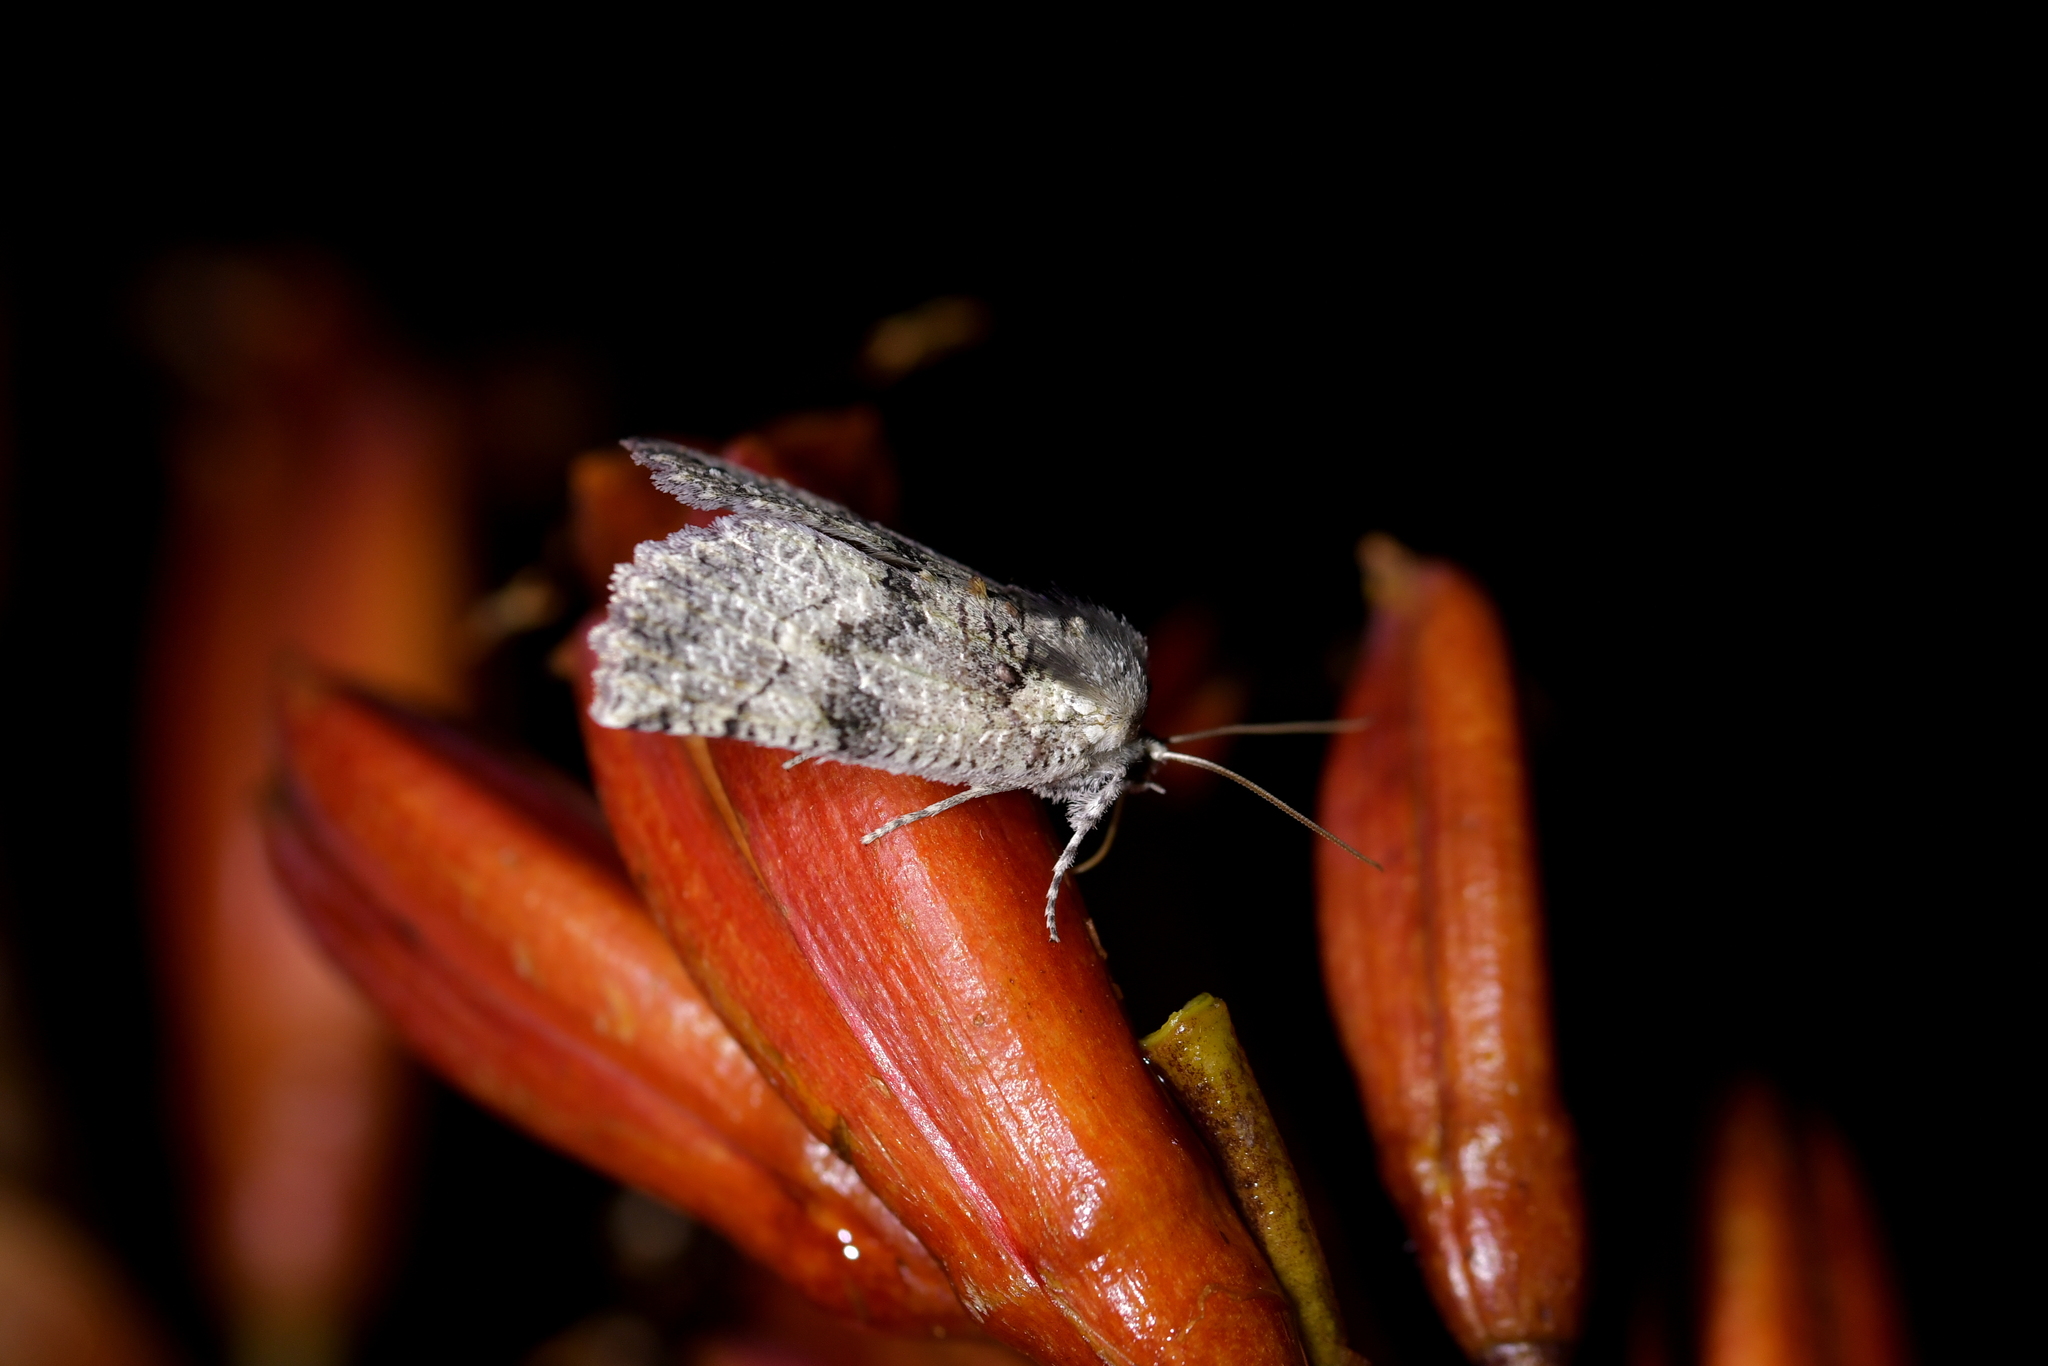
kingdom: Animalia
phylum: Arthropoda
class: Insecta
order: Lepidoptera
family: Geometridae
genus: Declana
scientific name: Declana floccosa
